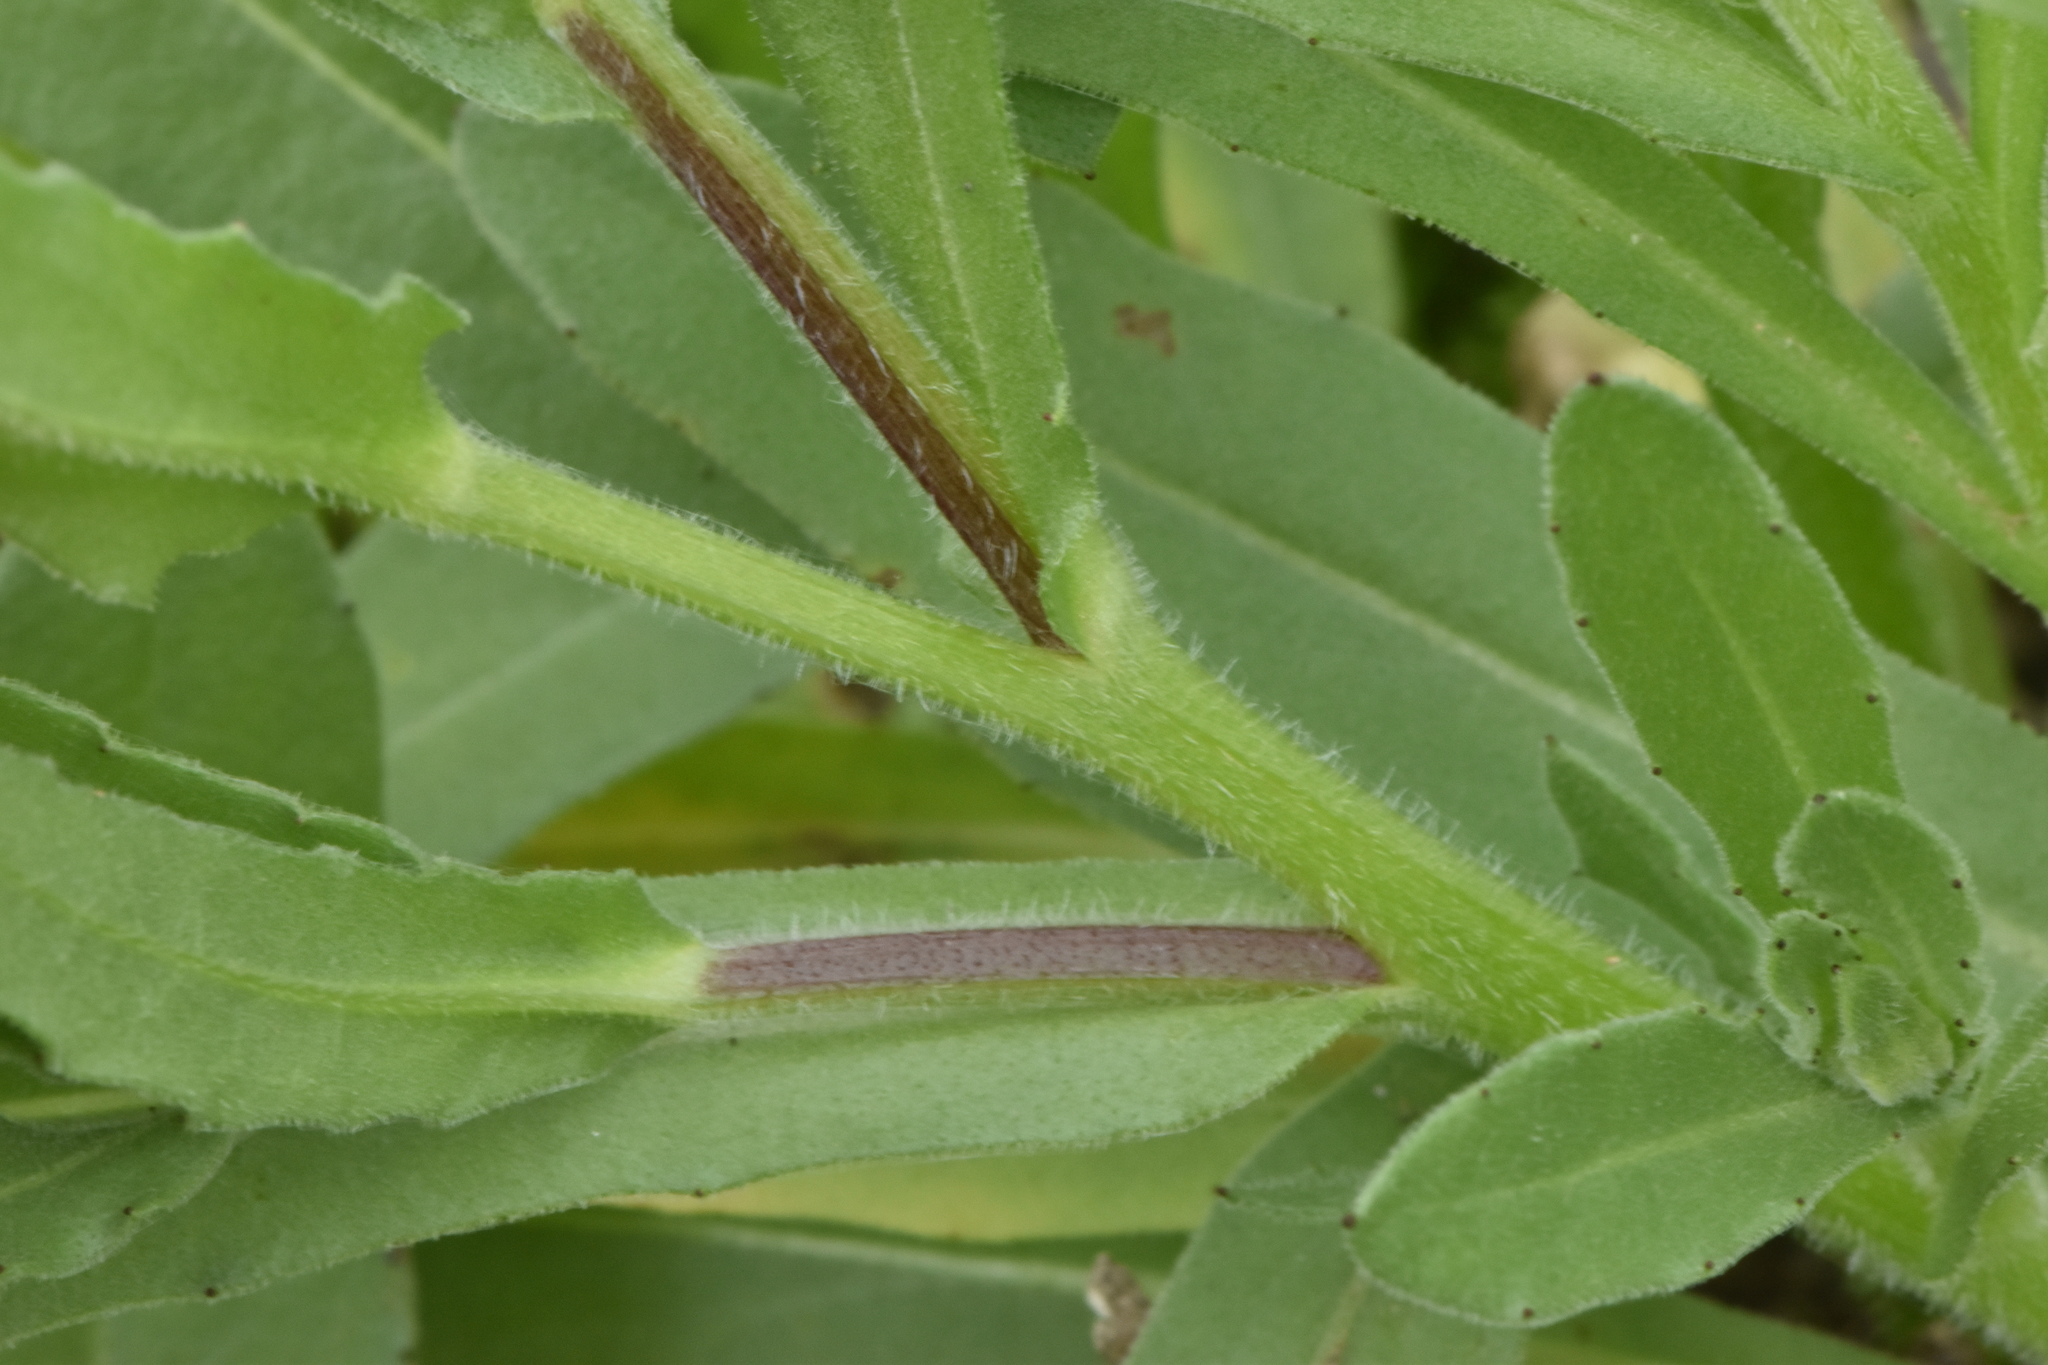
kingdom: Plantae
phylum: Tracheophyta
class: Magnoliopsida
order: Asterales
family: Asteraceae
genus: Calendula
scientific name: Calendula arvensis
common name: Field marigold
